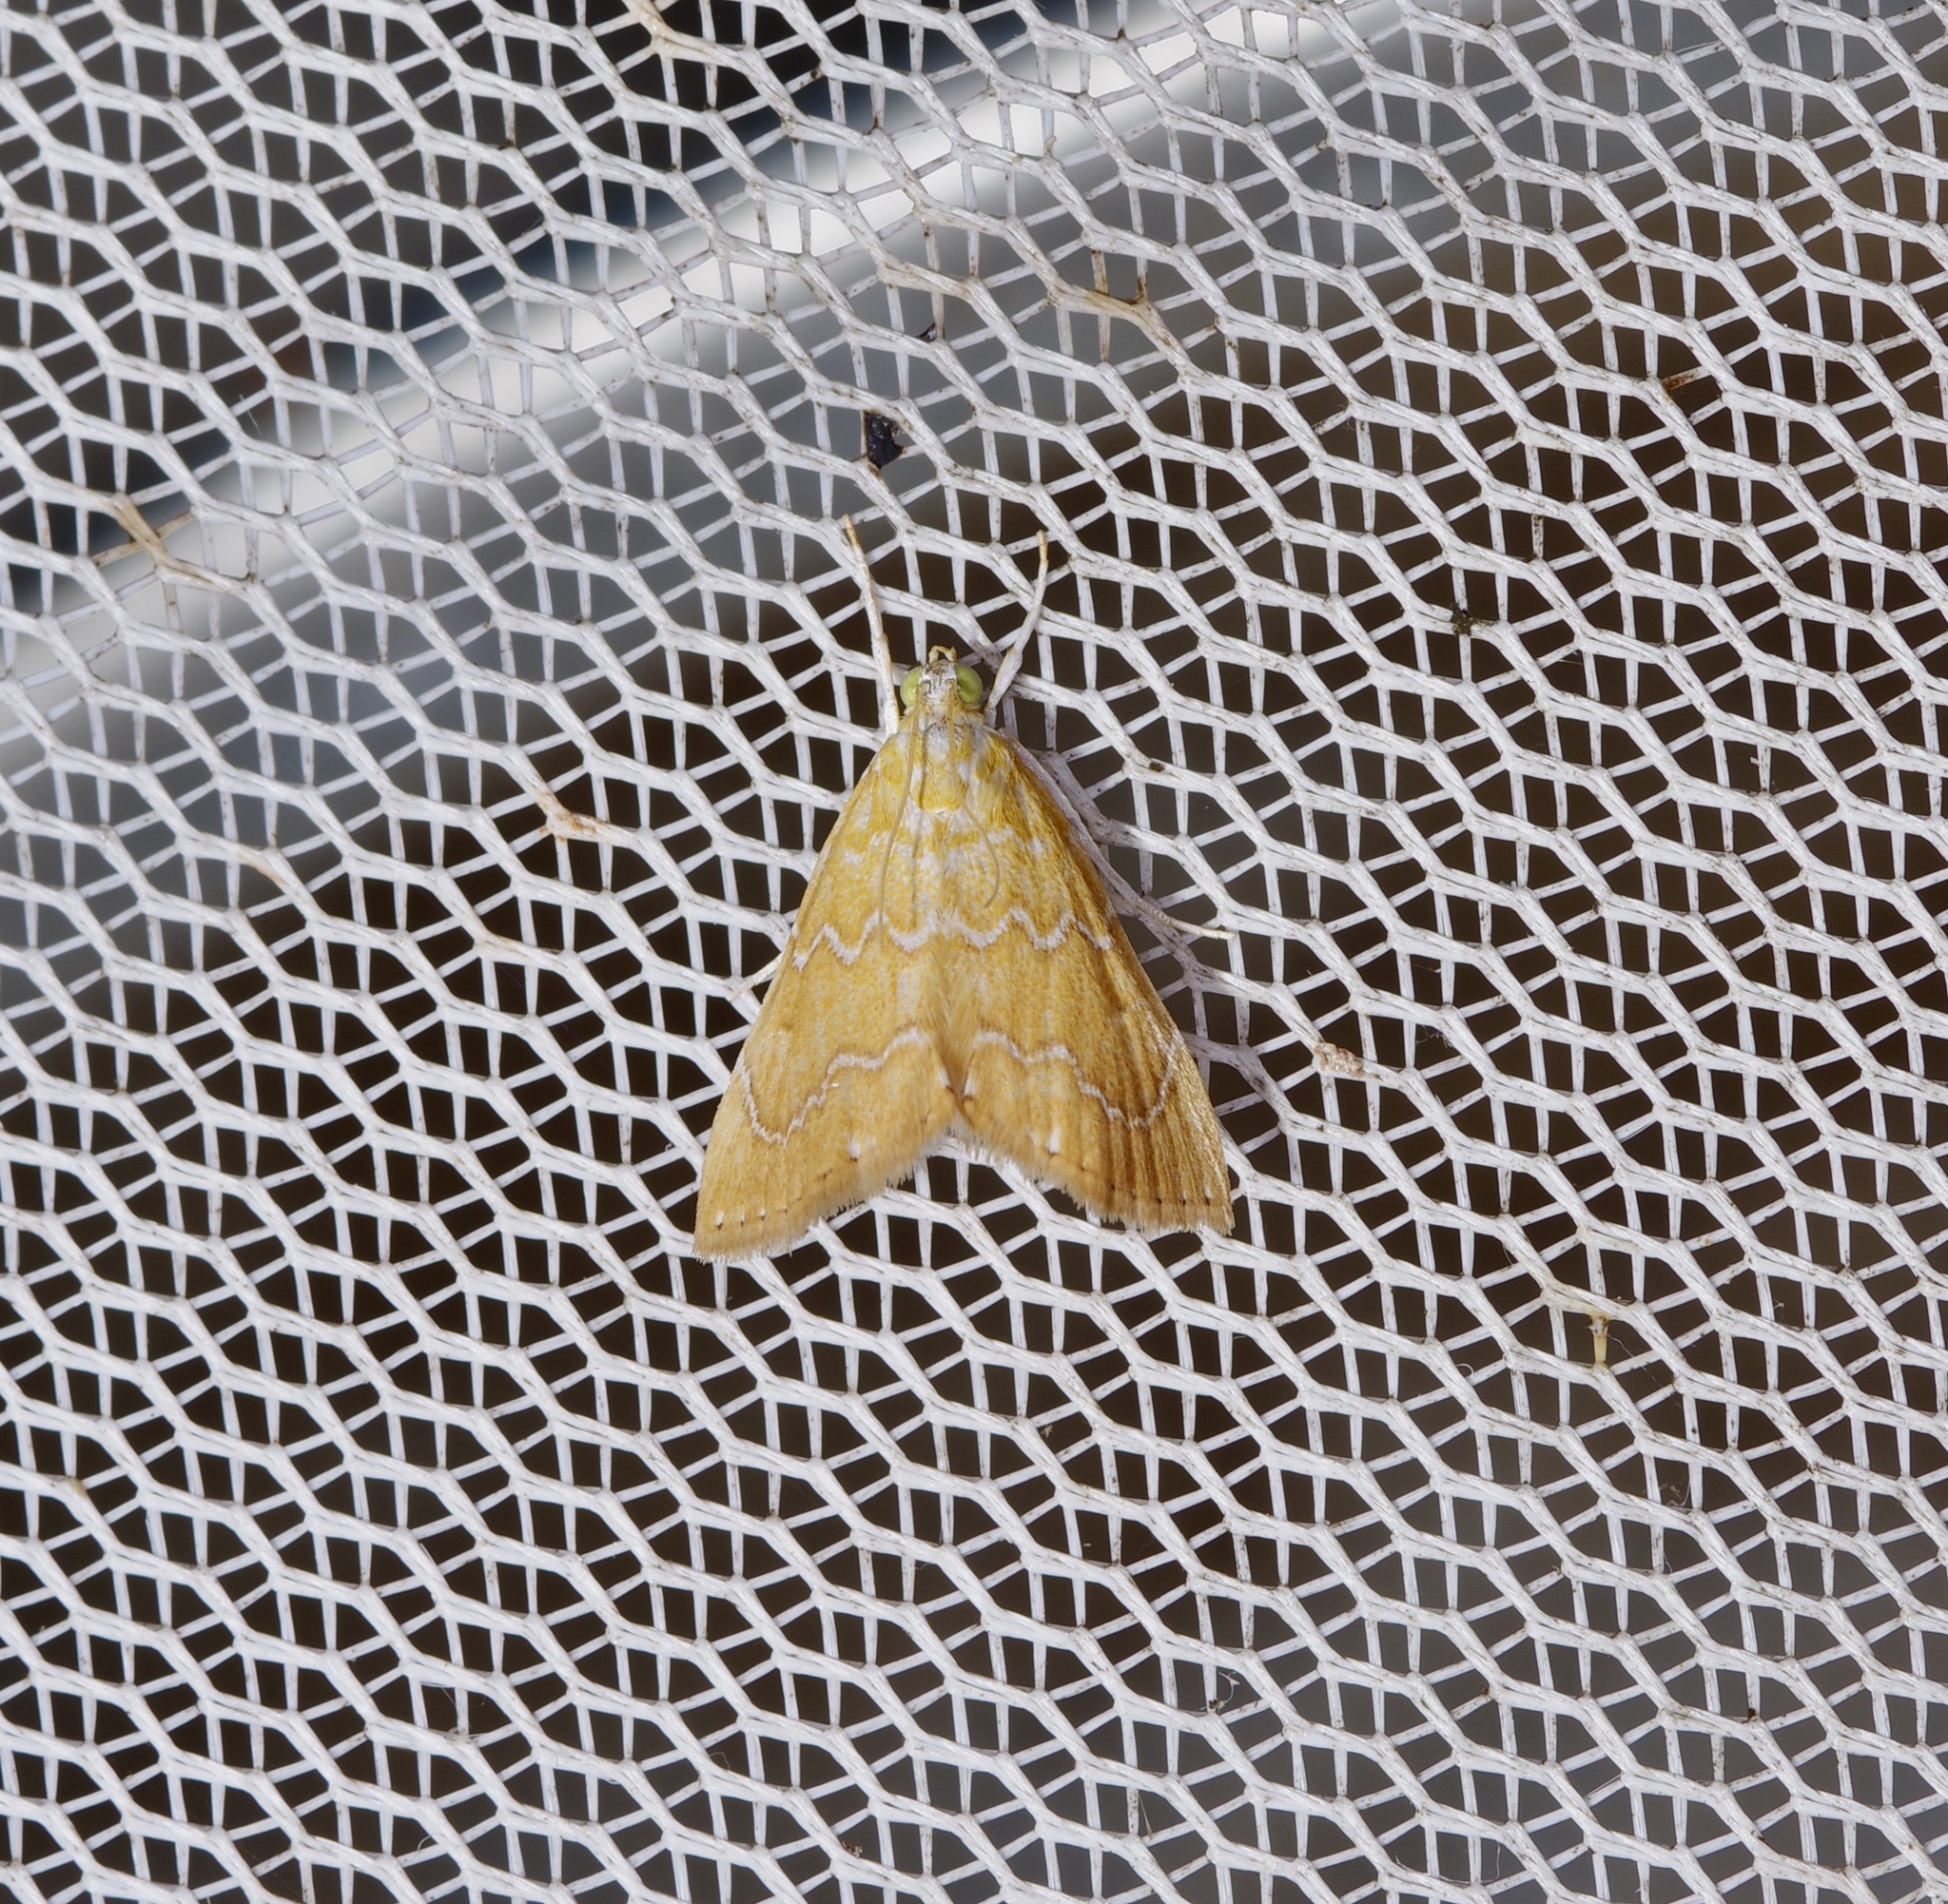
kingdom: Animalia
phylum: Arthropoda
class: Insecta
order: Lepidoptera
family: Crambidae
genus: Glaphyria
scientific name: Glaphyria sesquistrialis
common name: White-roped glaphyria
